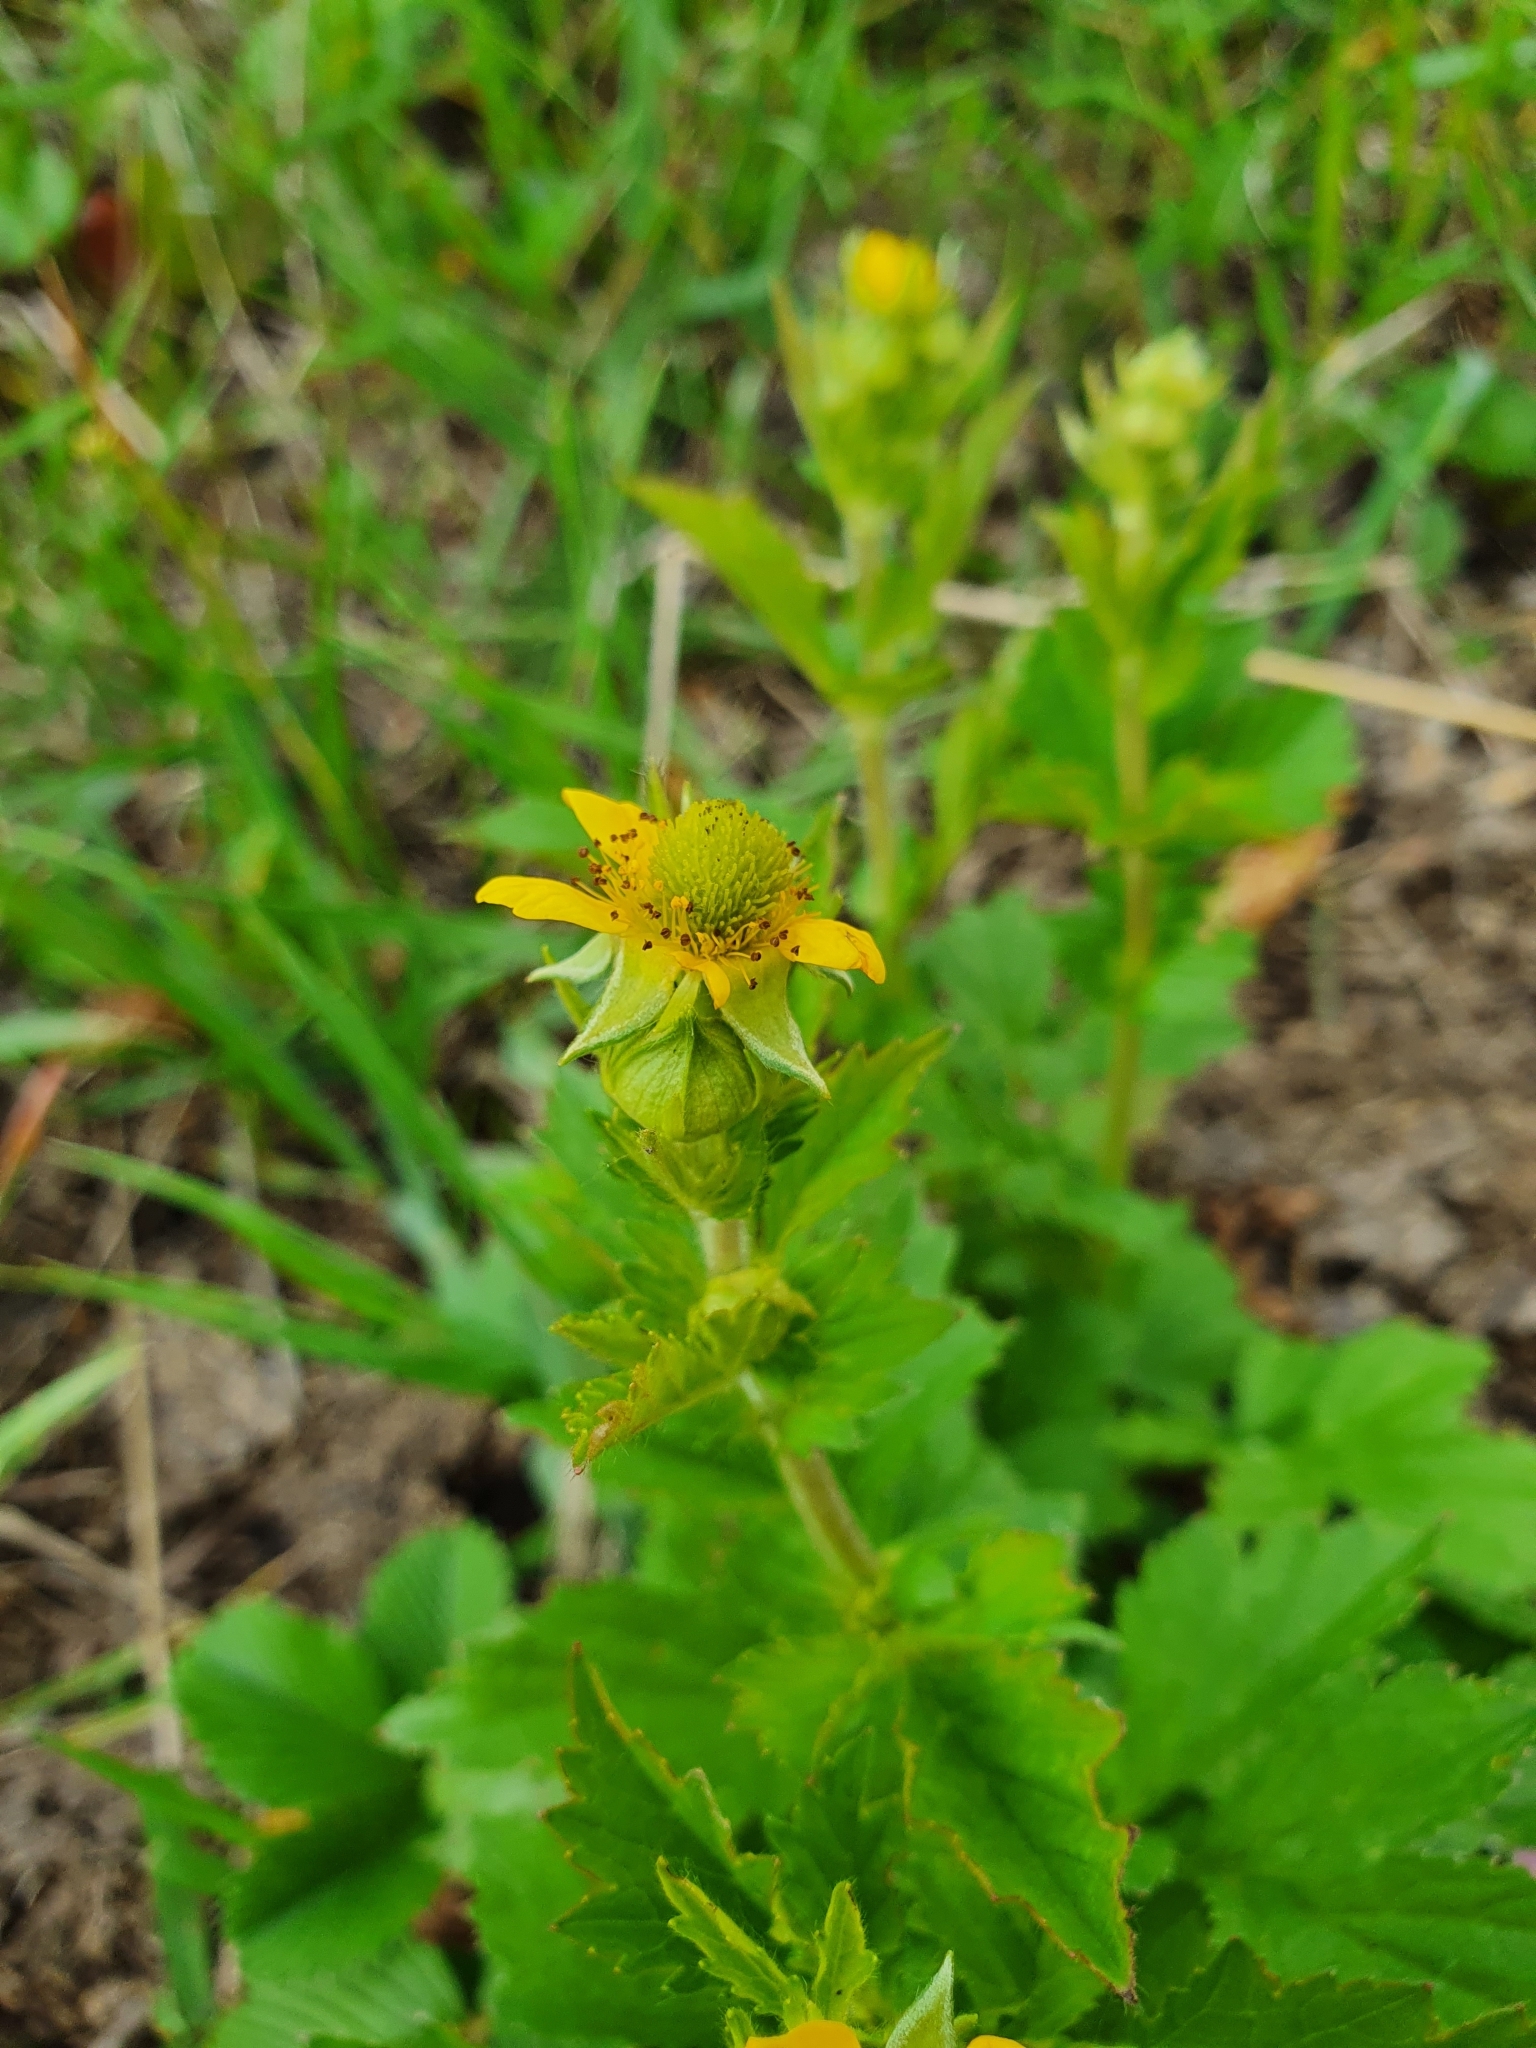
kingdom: Plantae
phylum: Tracheophyta
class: Magnoliopsida
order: Rosales
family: Rosaceae
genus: Geum
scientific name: Geum aleppicum
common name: Yellow avens
